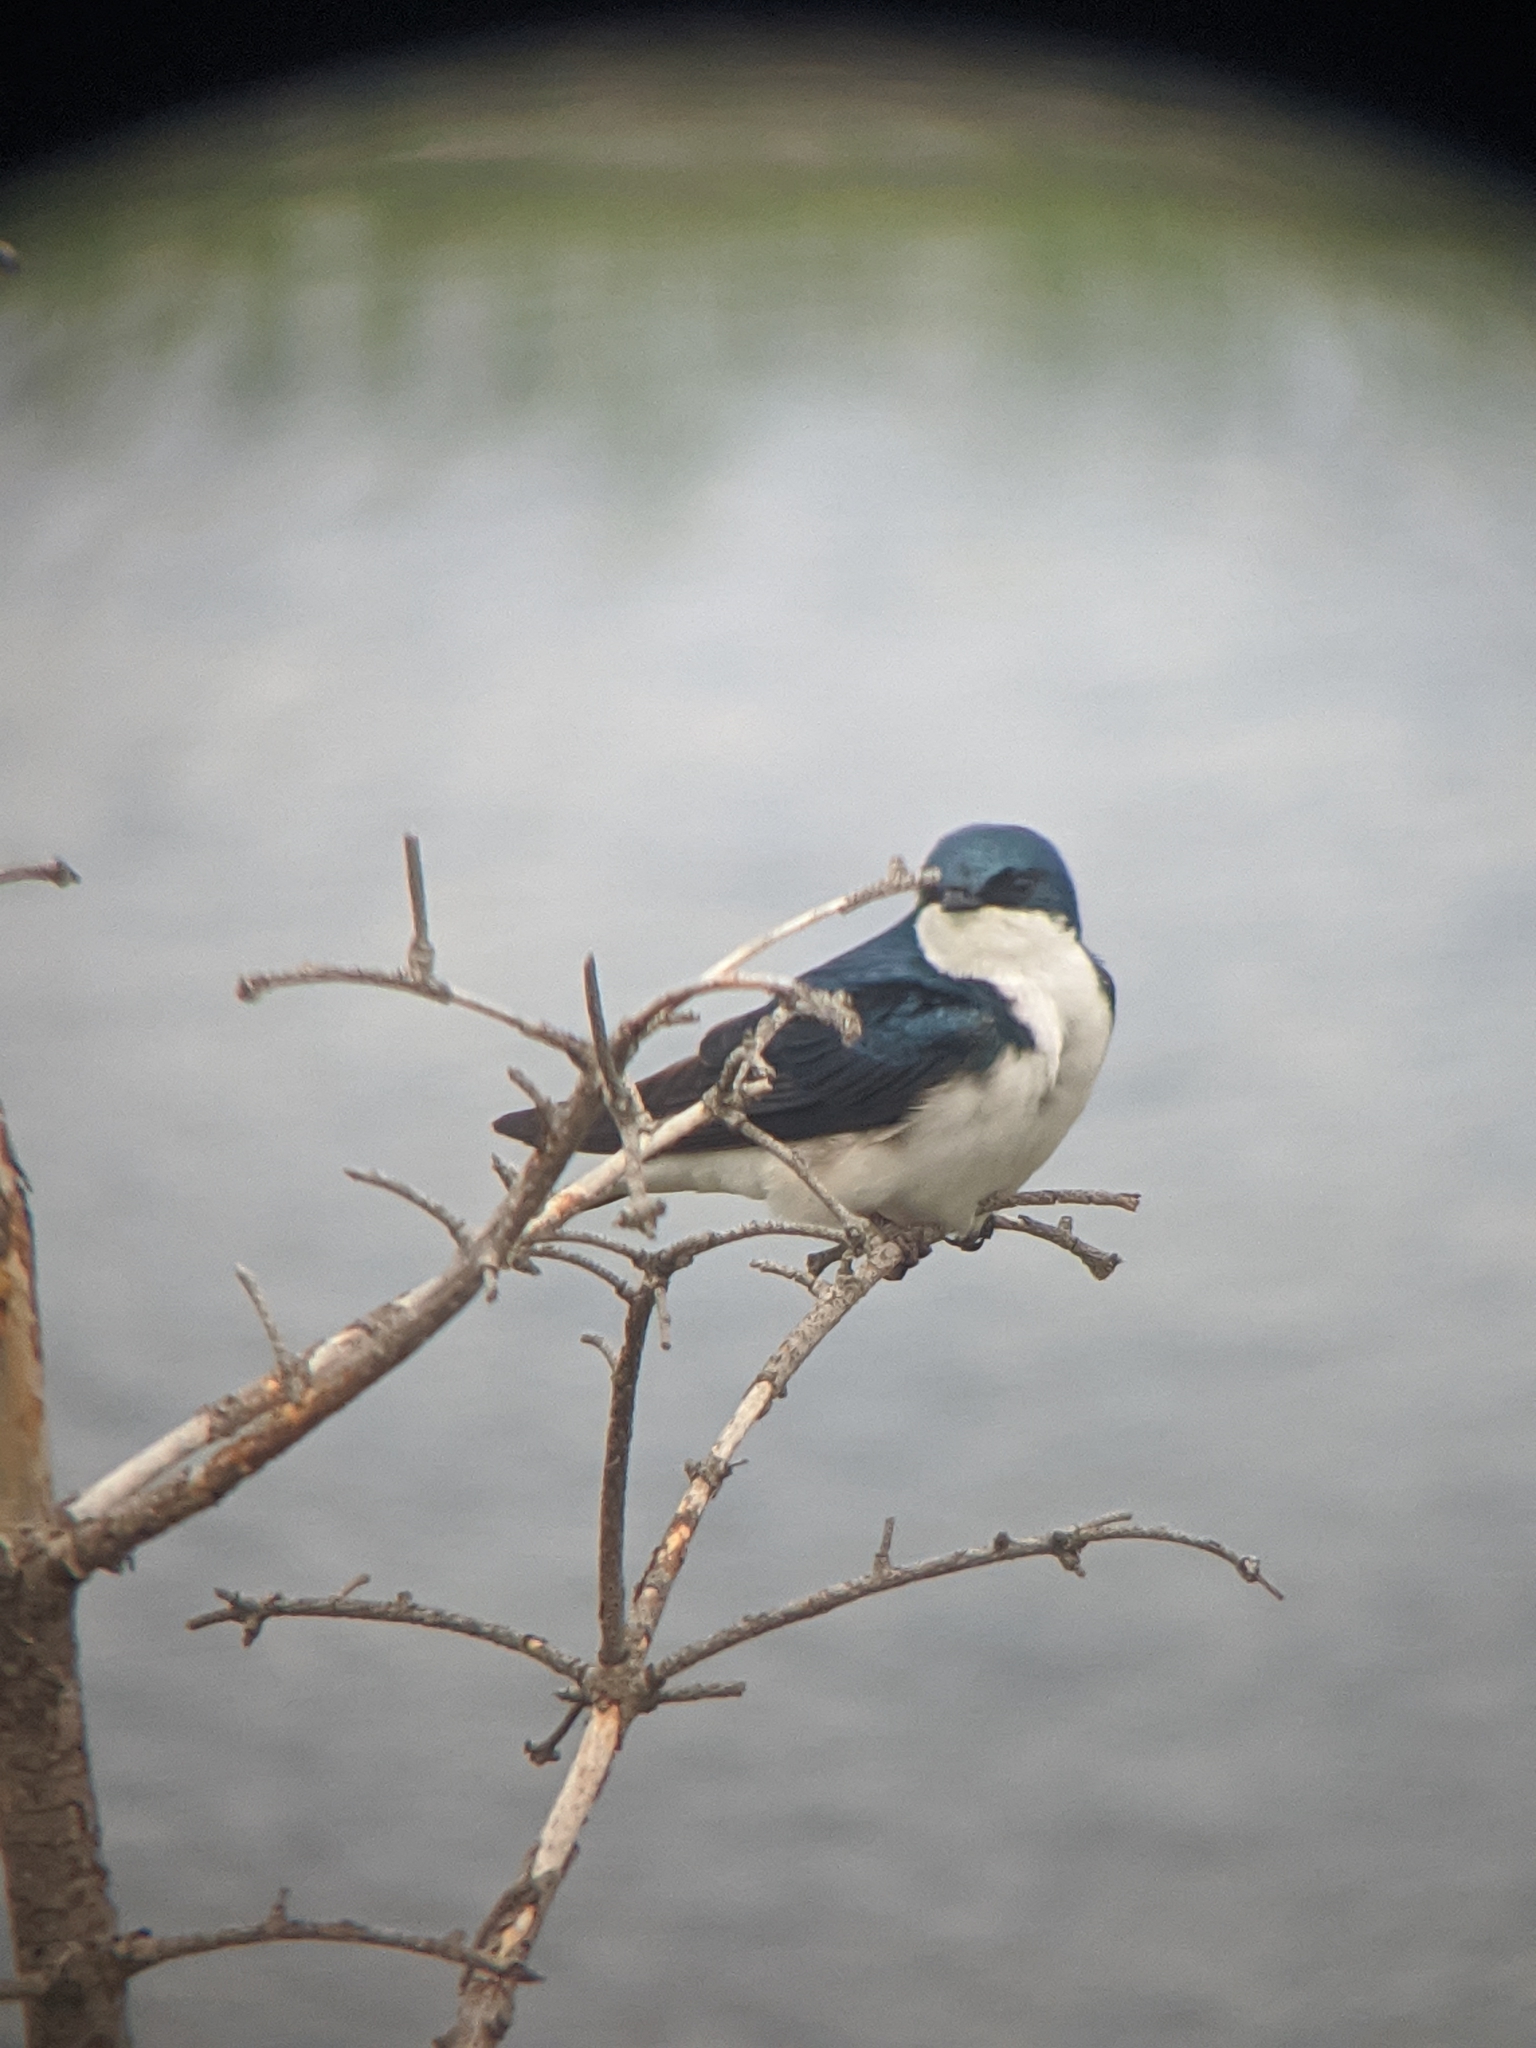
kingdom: Animalia
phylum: Chordata
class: Aves
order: Passeriformes
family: Hirundinidae
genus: Tachycineta
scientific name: Tachycineta bicolor
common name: Tree swallow
